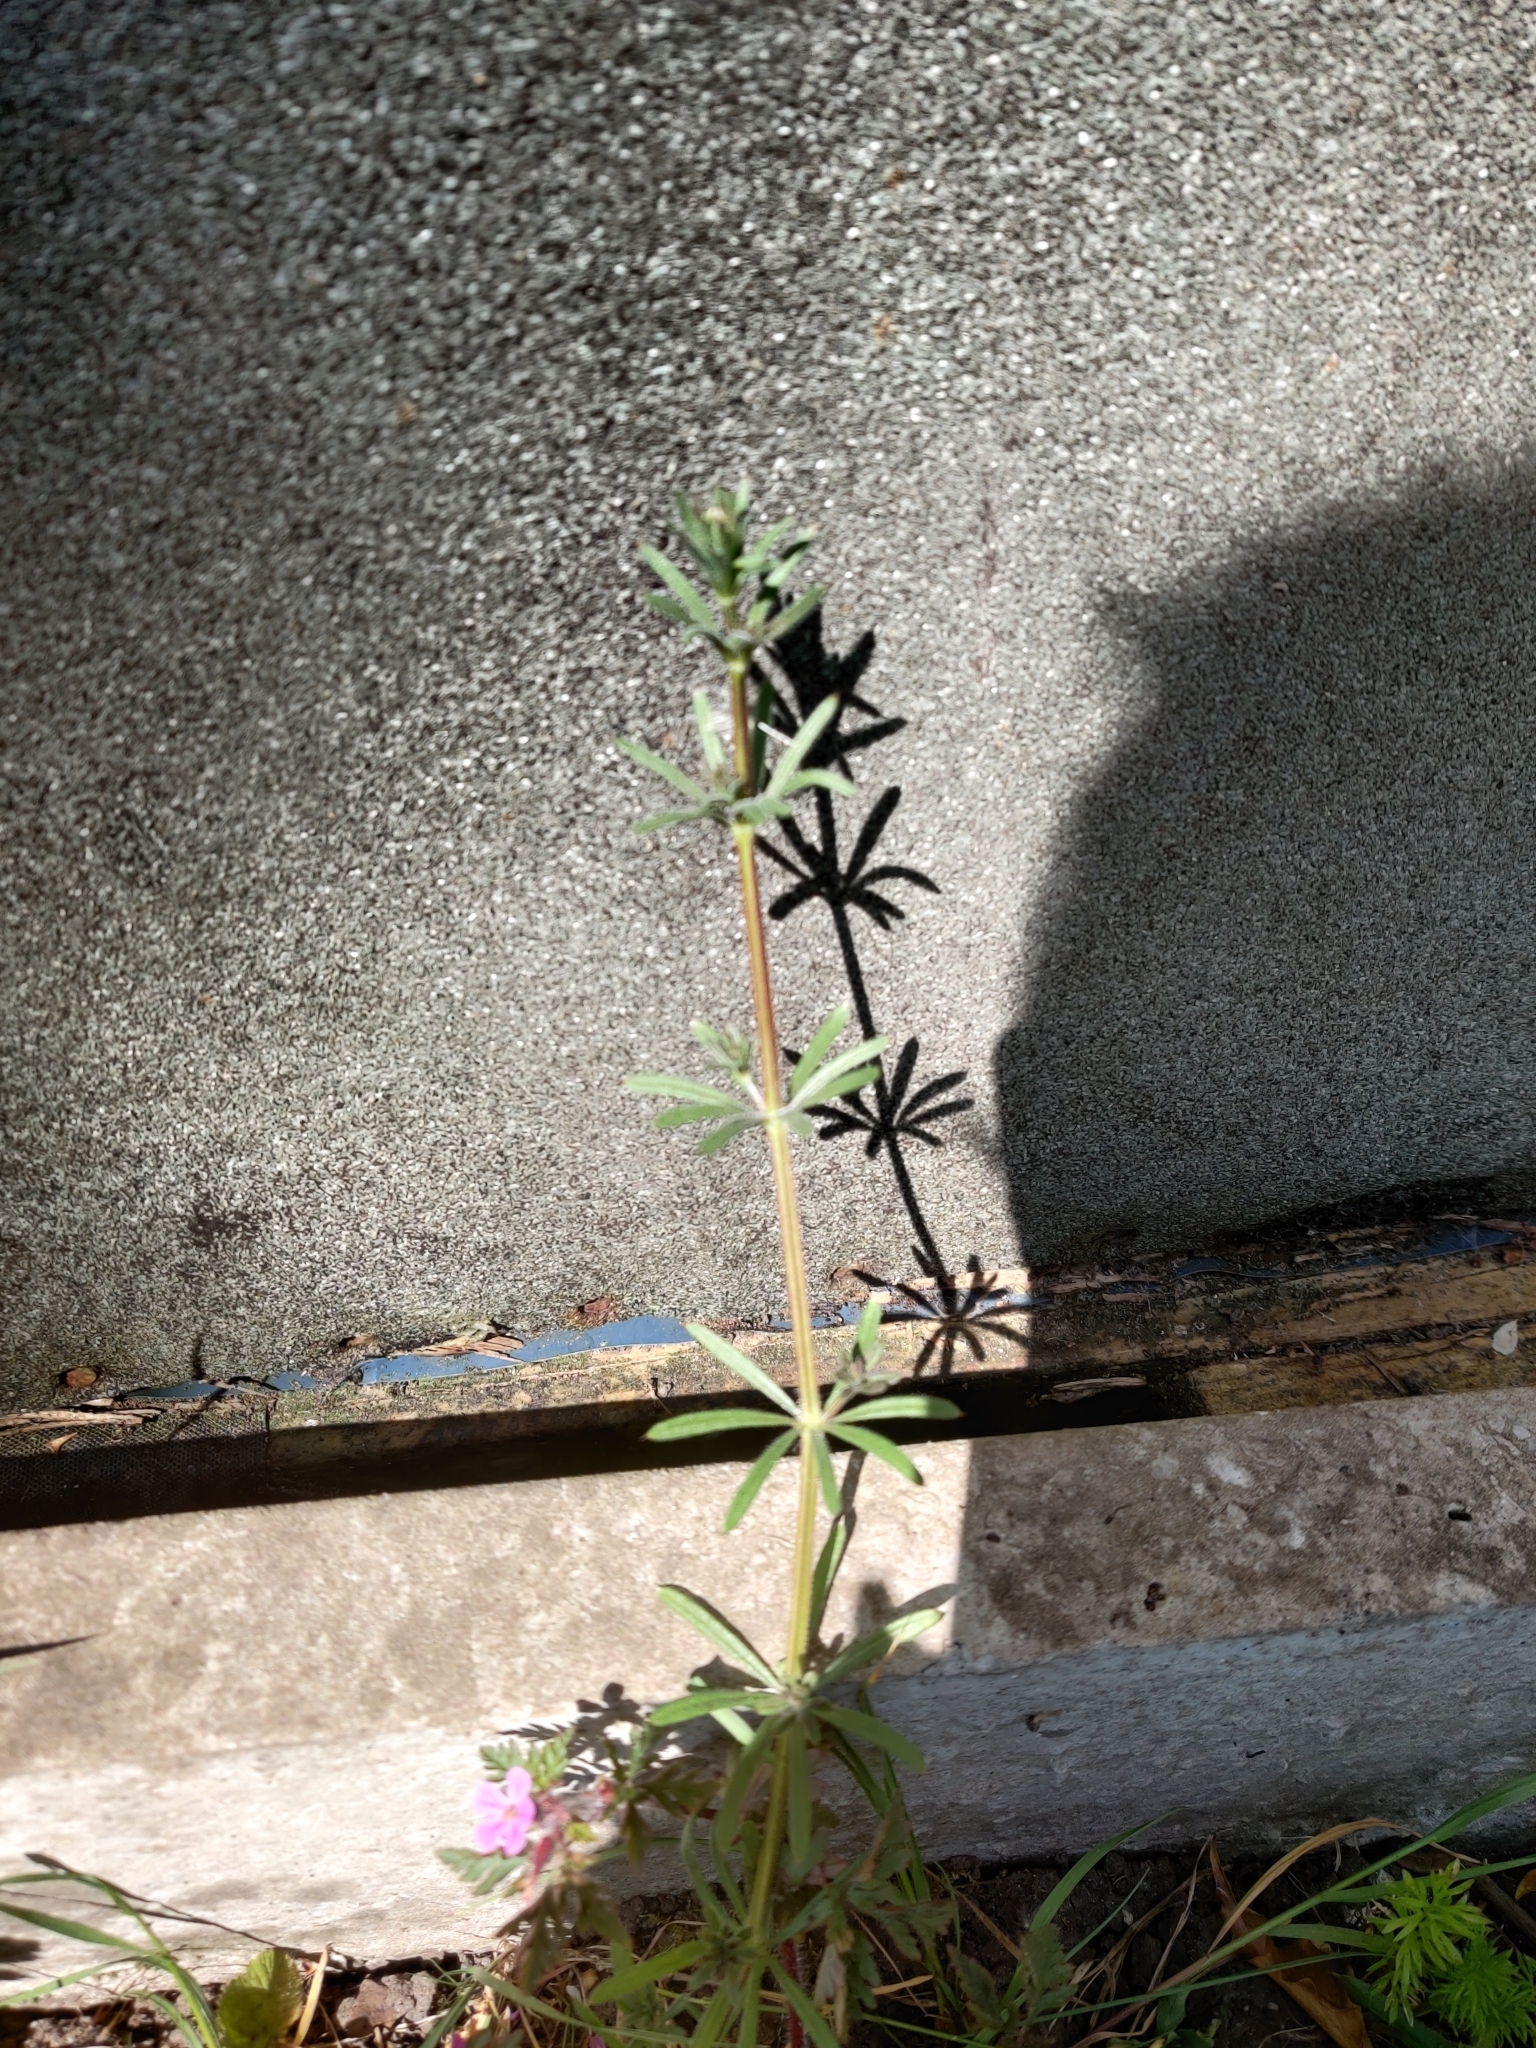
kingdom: Plantae
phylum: Tracheophyta
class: Magnoliopsida
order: Gentianales
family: Rubiaceae
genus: Galium
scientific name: Galium aparine
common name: Cleavers
